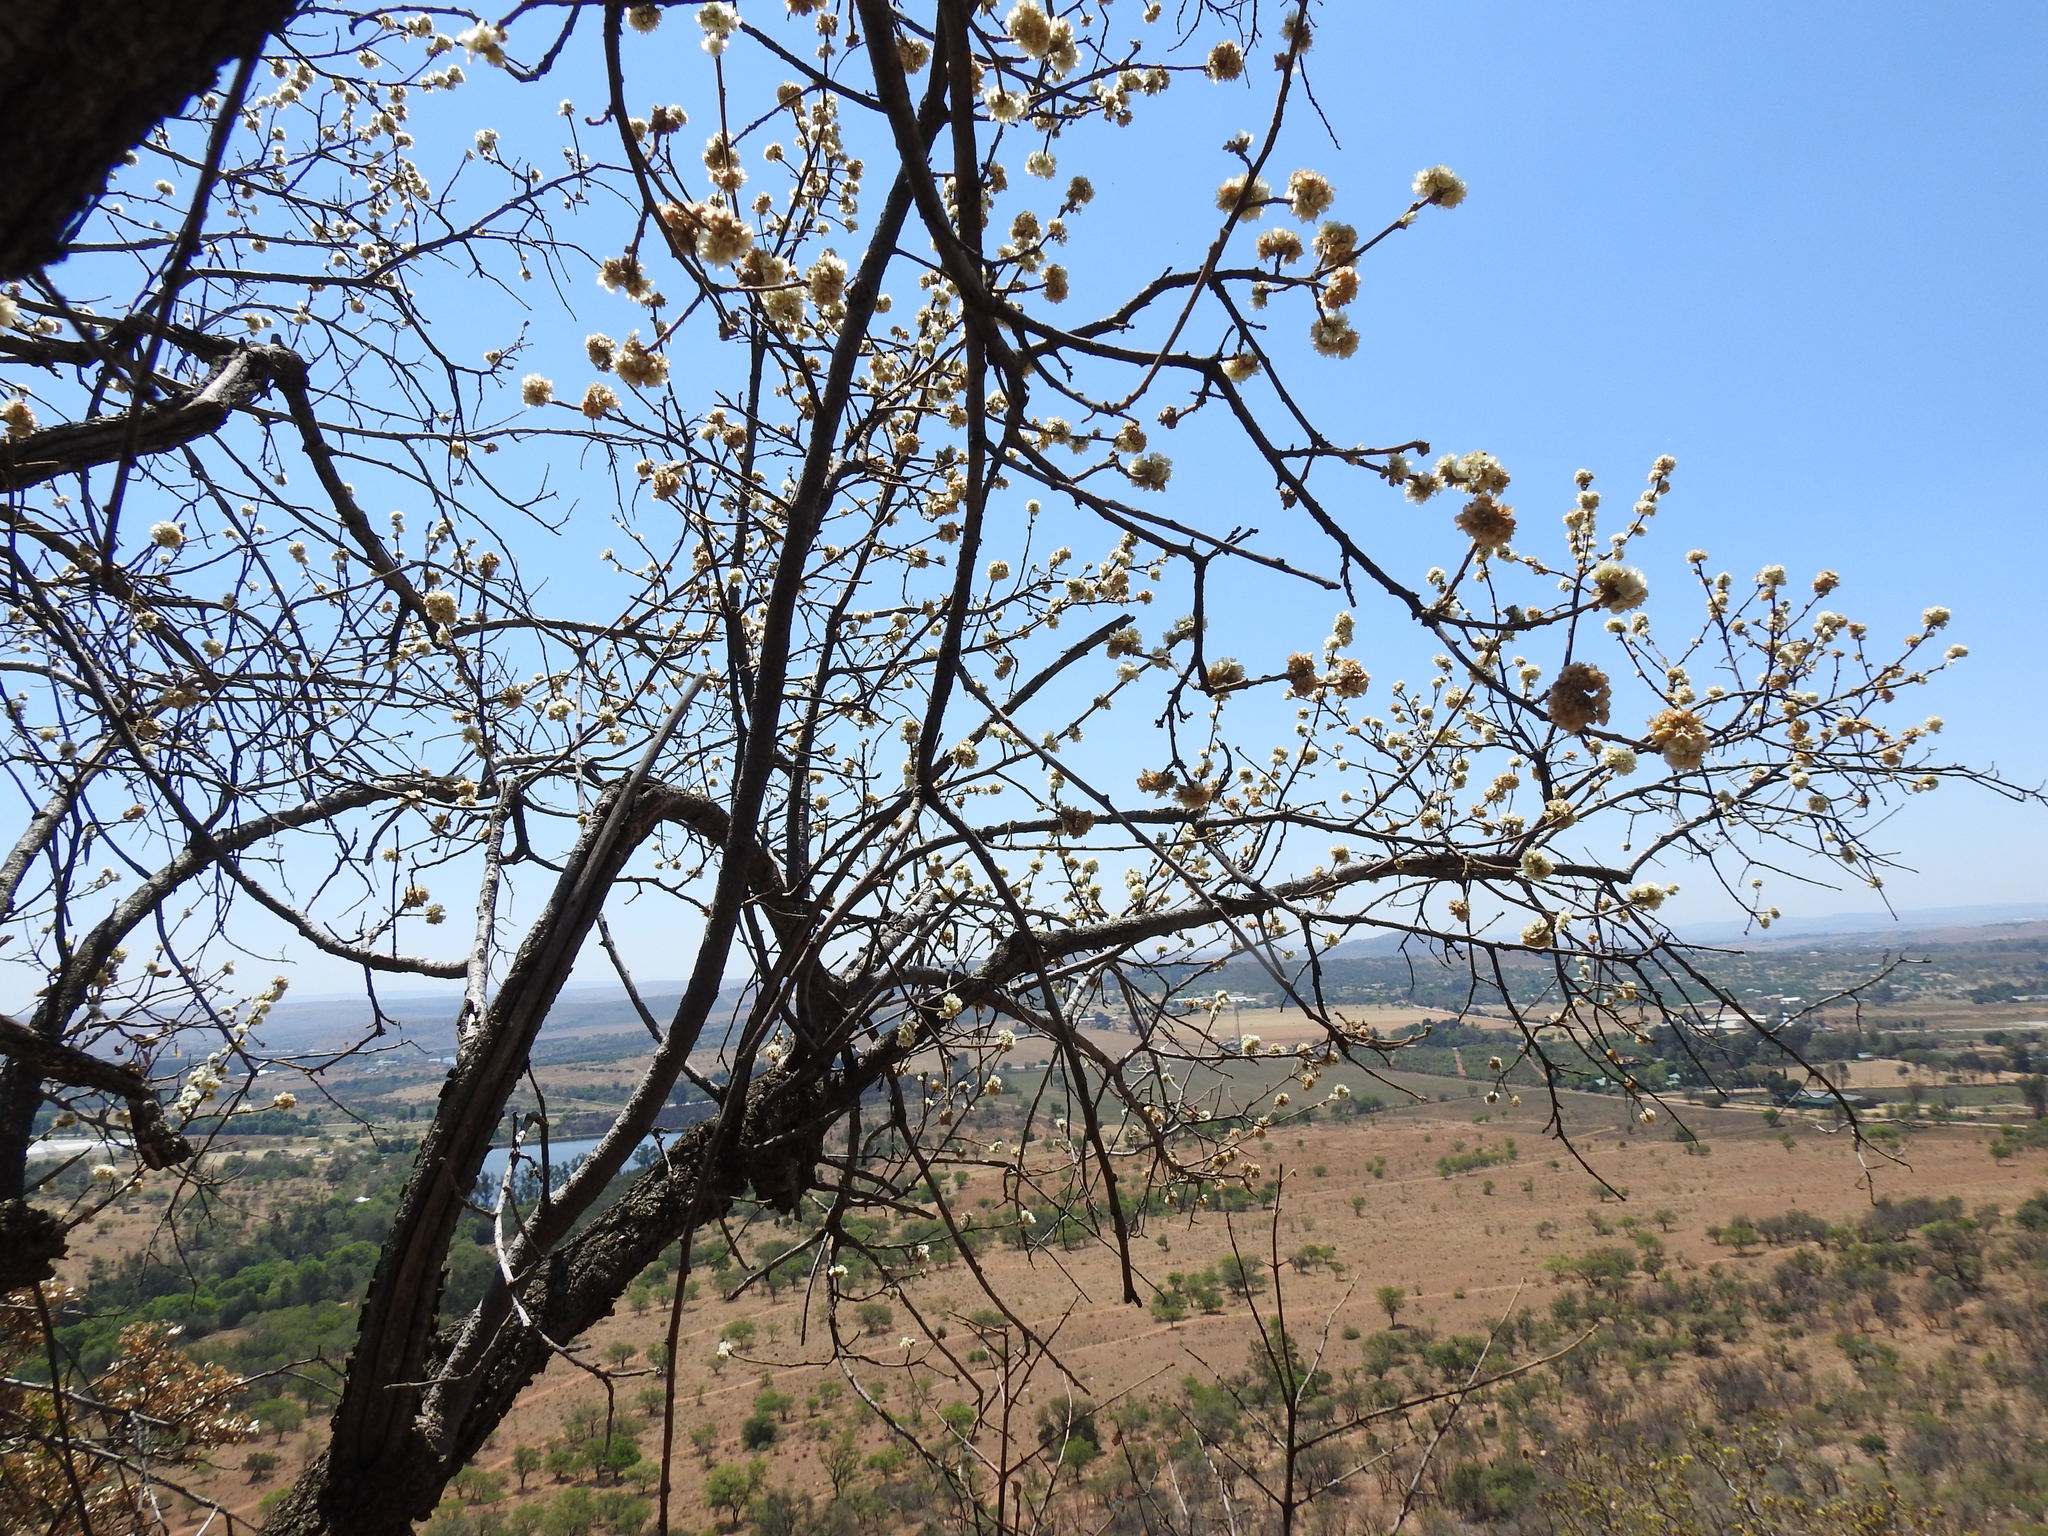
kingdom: Plantae
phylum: Tracheophyta
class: Magnoliopsida
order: Malvales
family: Malvaceae
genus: Dombeya
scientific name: Dombeya rotundifolia
